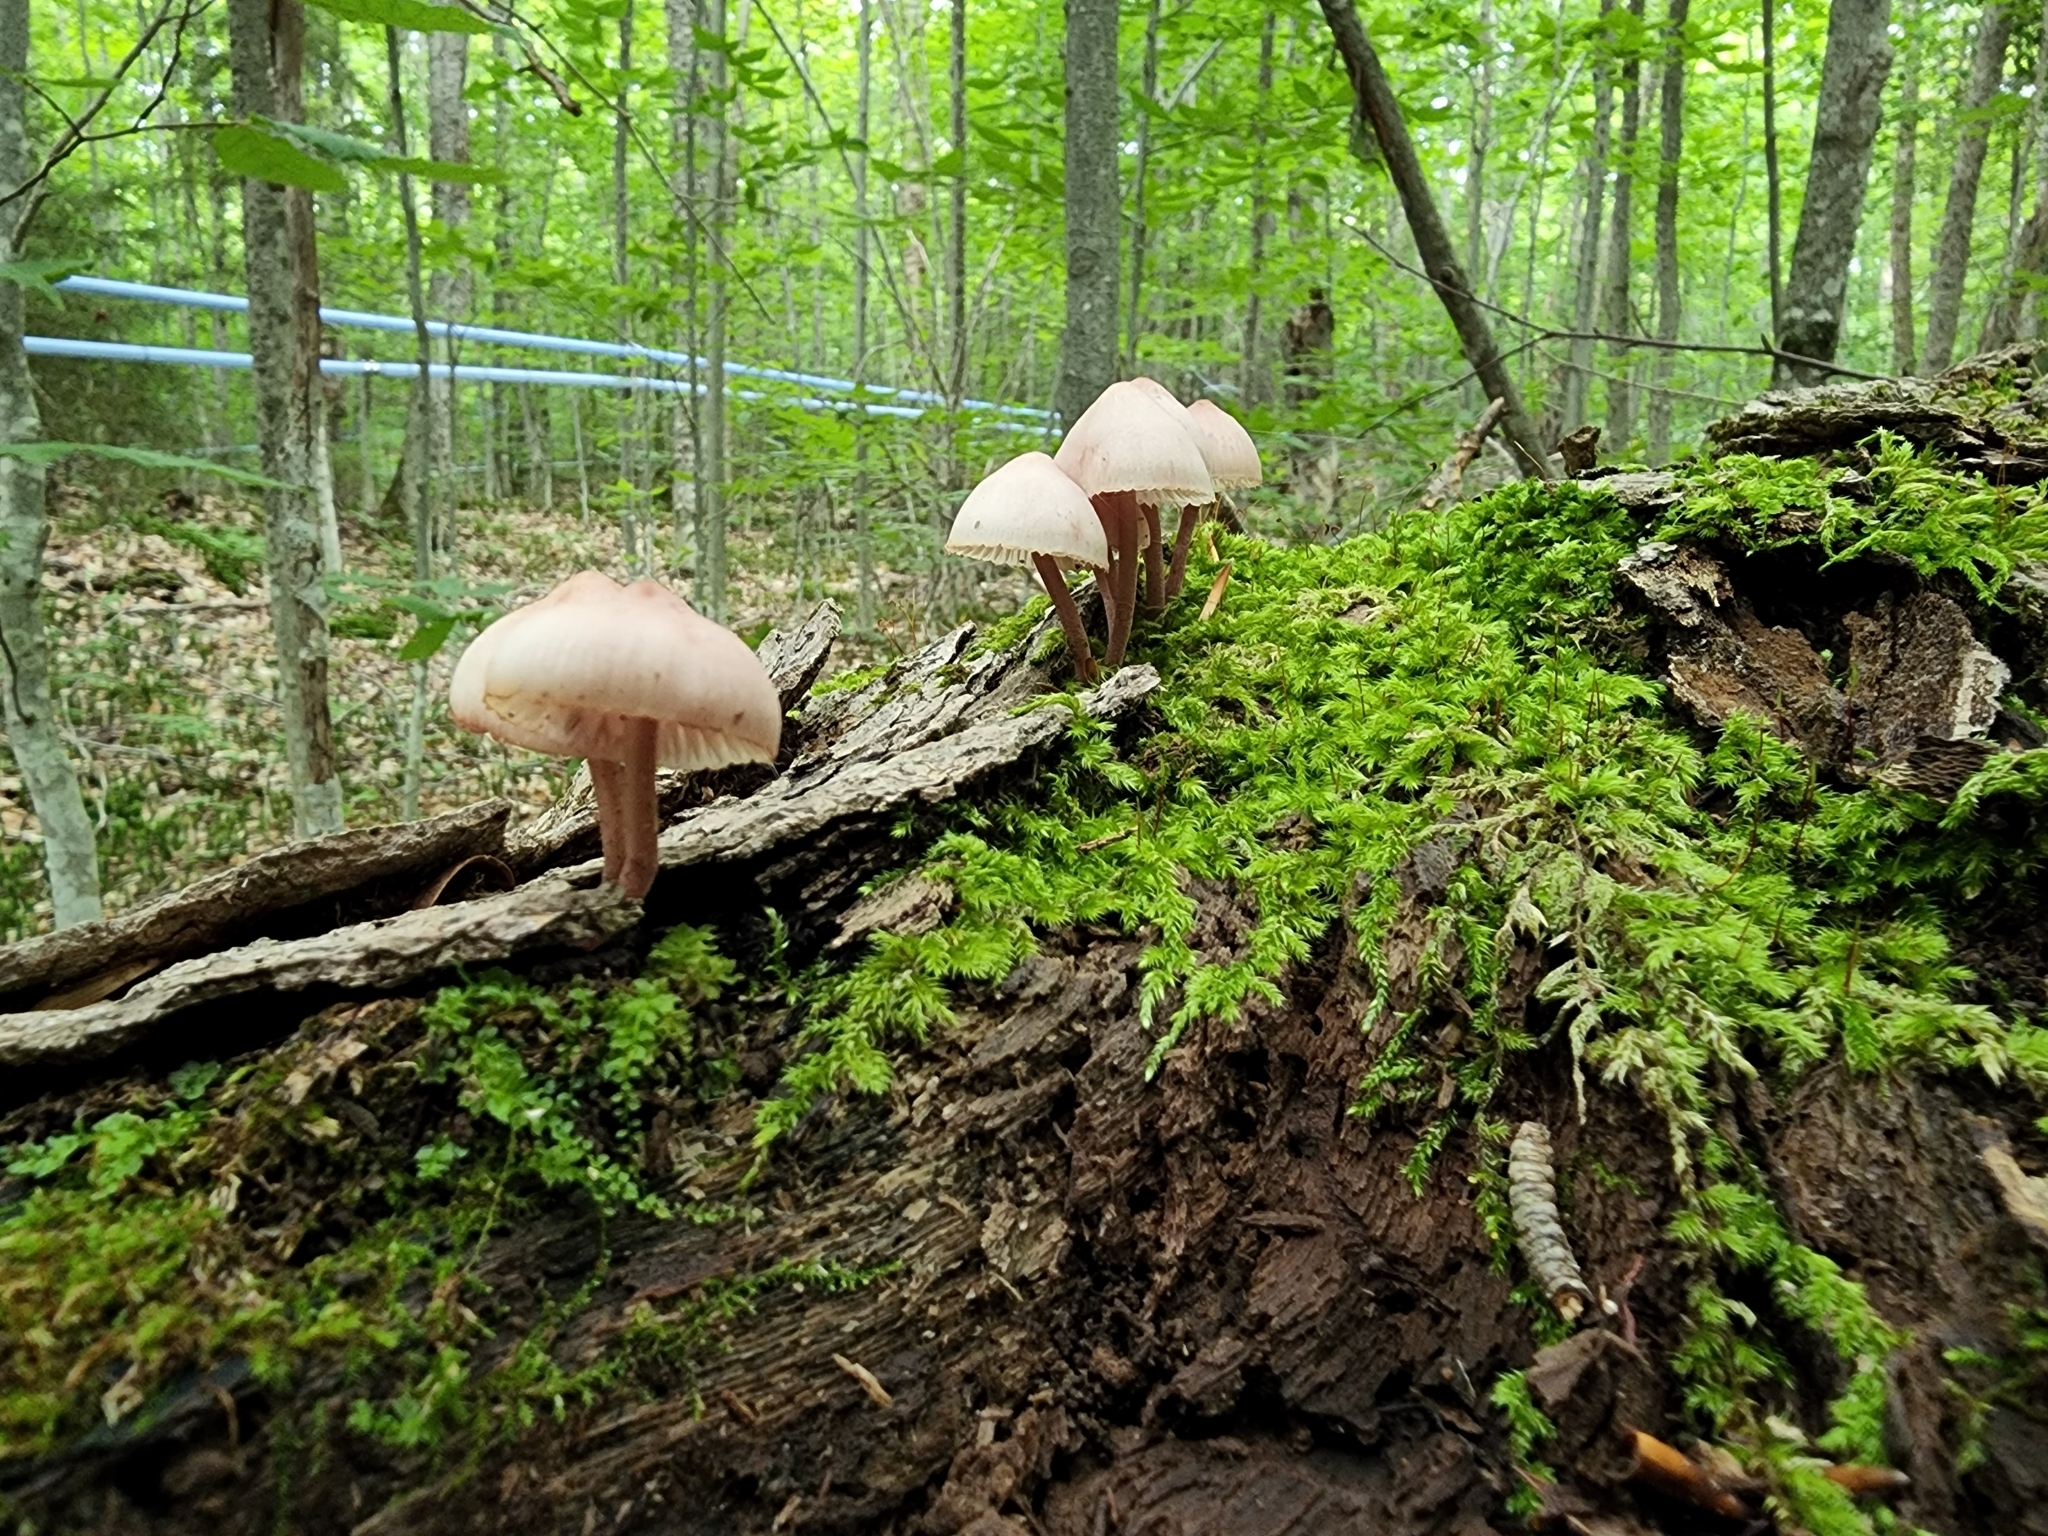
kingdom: Fungi
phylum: Basidiomycota
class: Agaricomycetes
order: Agaricales
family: Mycenaceae
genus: Mycena
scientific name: Mycena haematopus
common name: Burgundydrop bonnet
